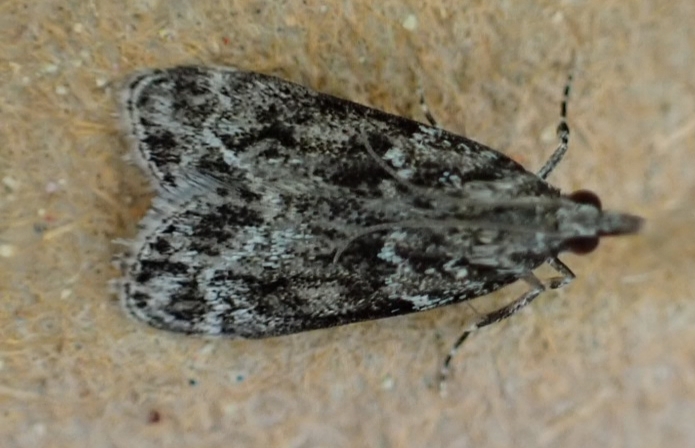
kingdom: Animalia
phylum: Arthropoda
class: Insecta
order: Lepidoptera
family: Crambidae
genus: Eudonia
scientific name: Eudonia mercurella
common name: Small grey
